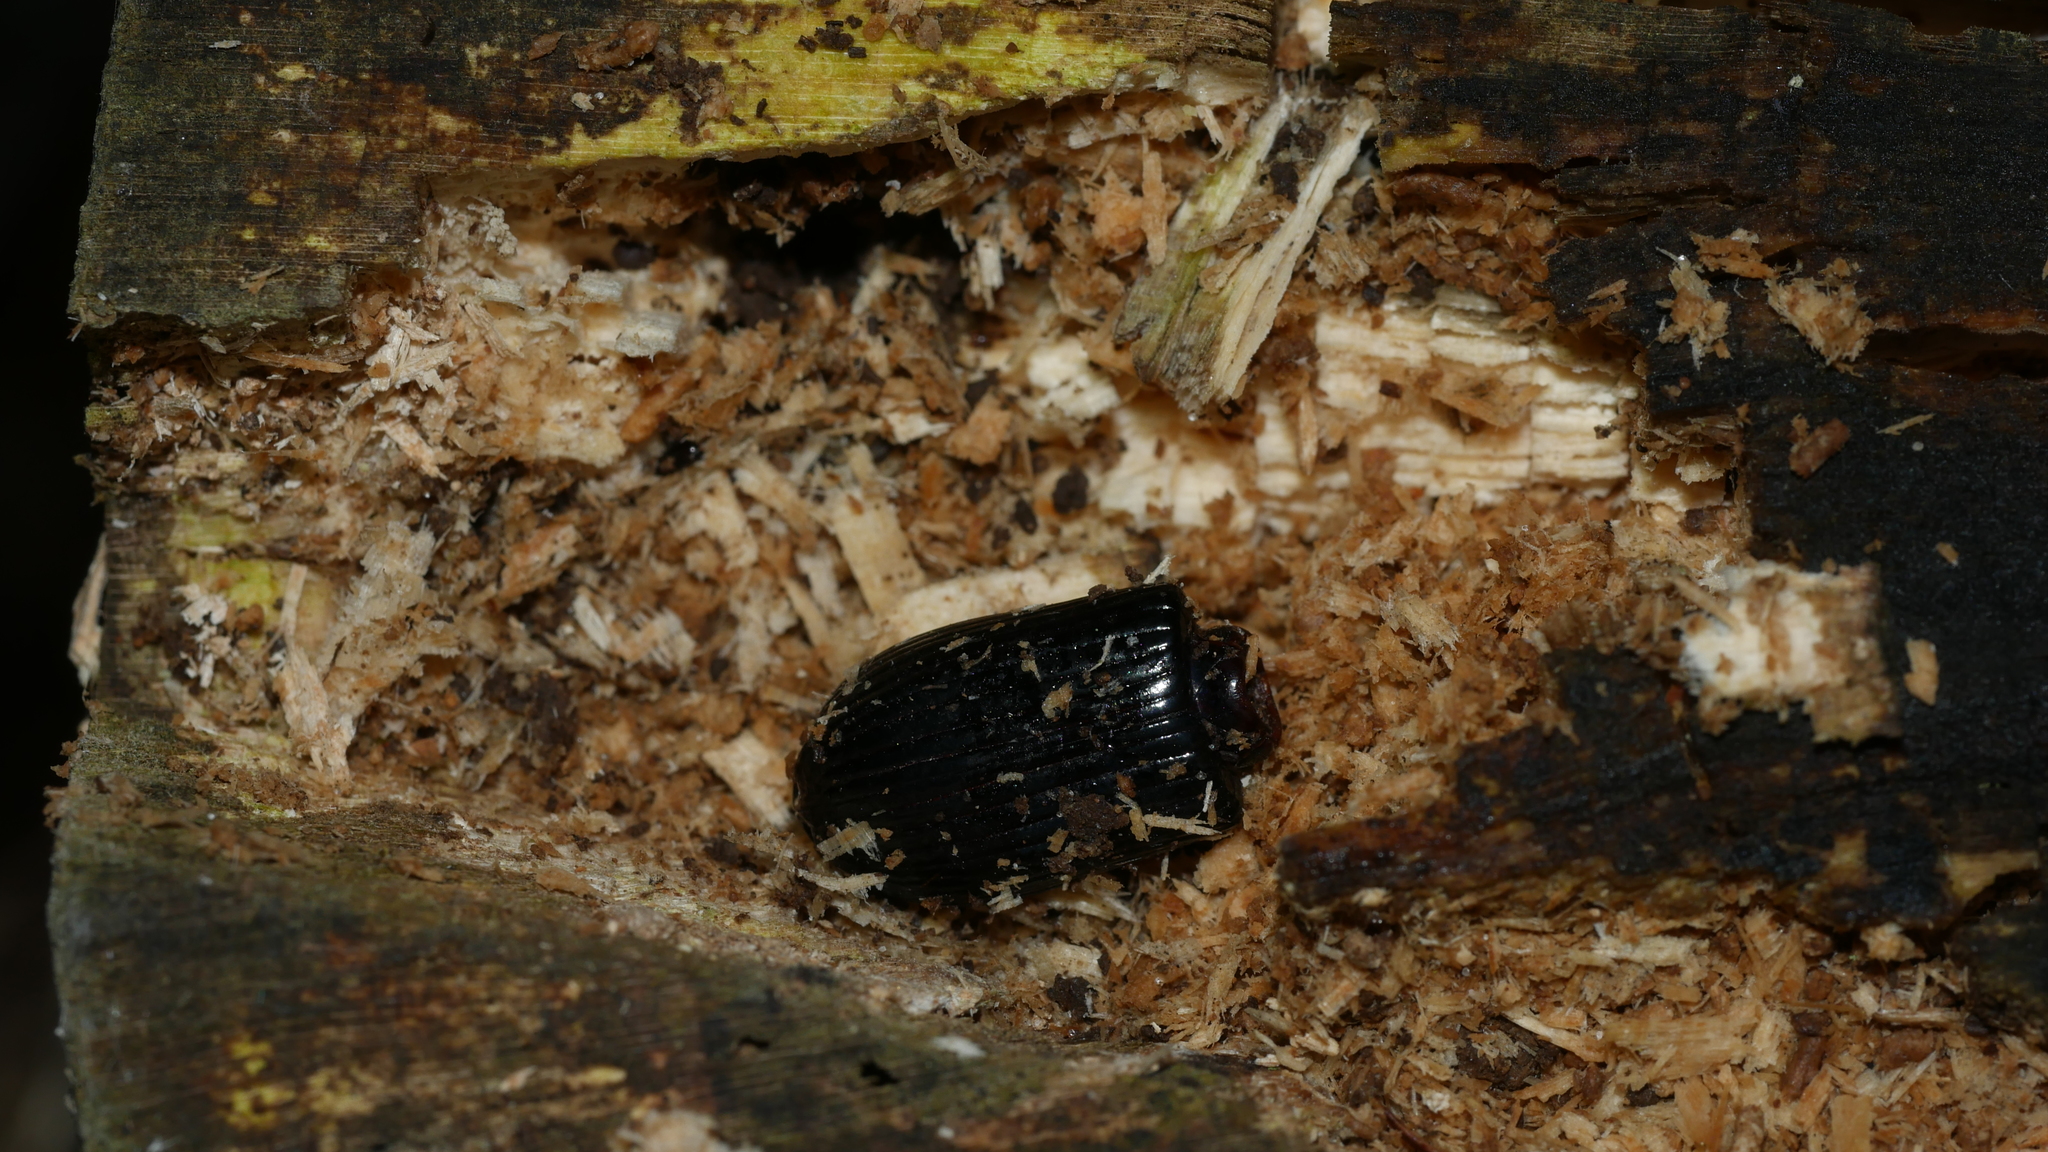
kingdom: Animalia
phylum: Arthropoda
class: Insecta
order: Coleoptera
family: Passalidae
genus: Odontotaenius
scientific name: Odontotaenius disjunctus
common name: Patent leather beetle
